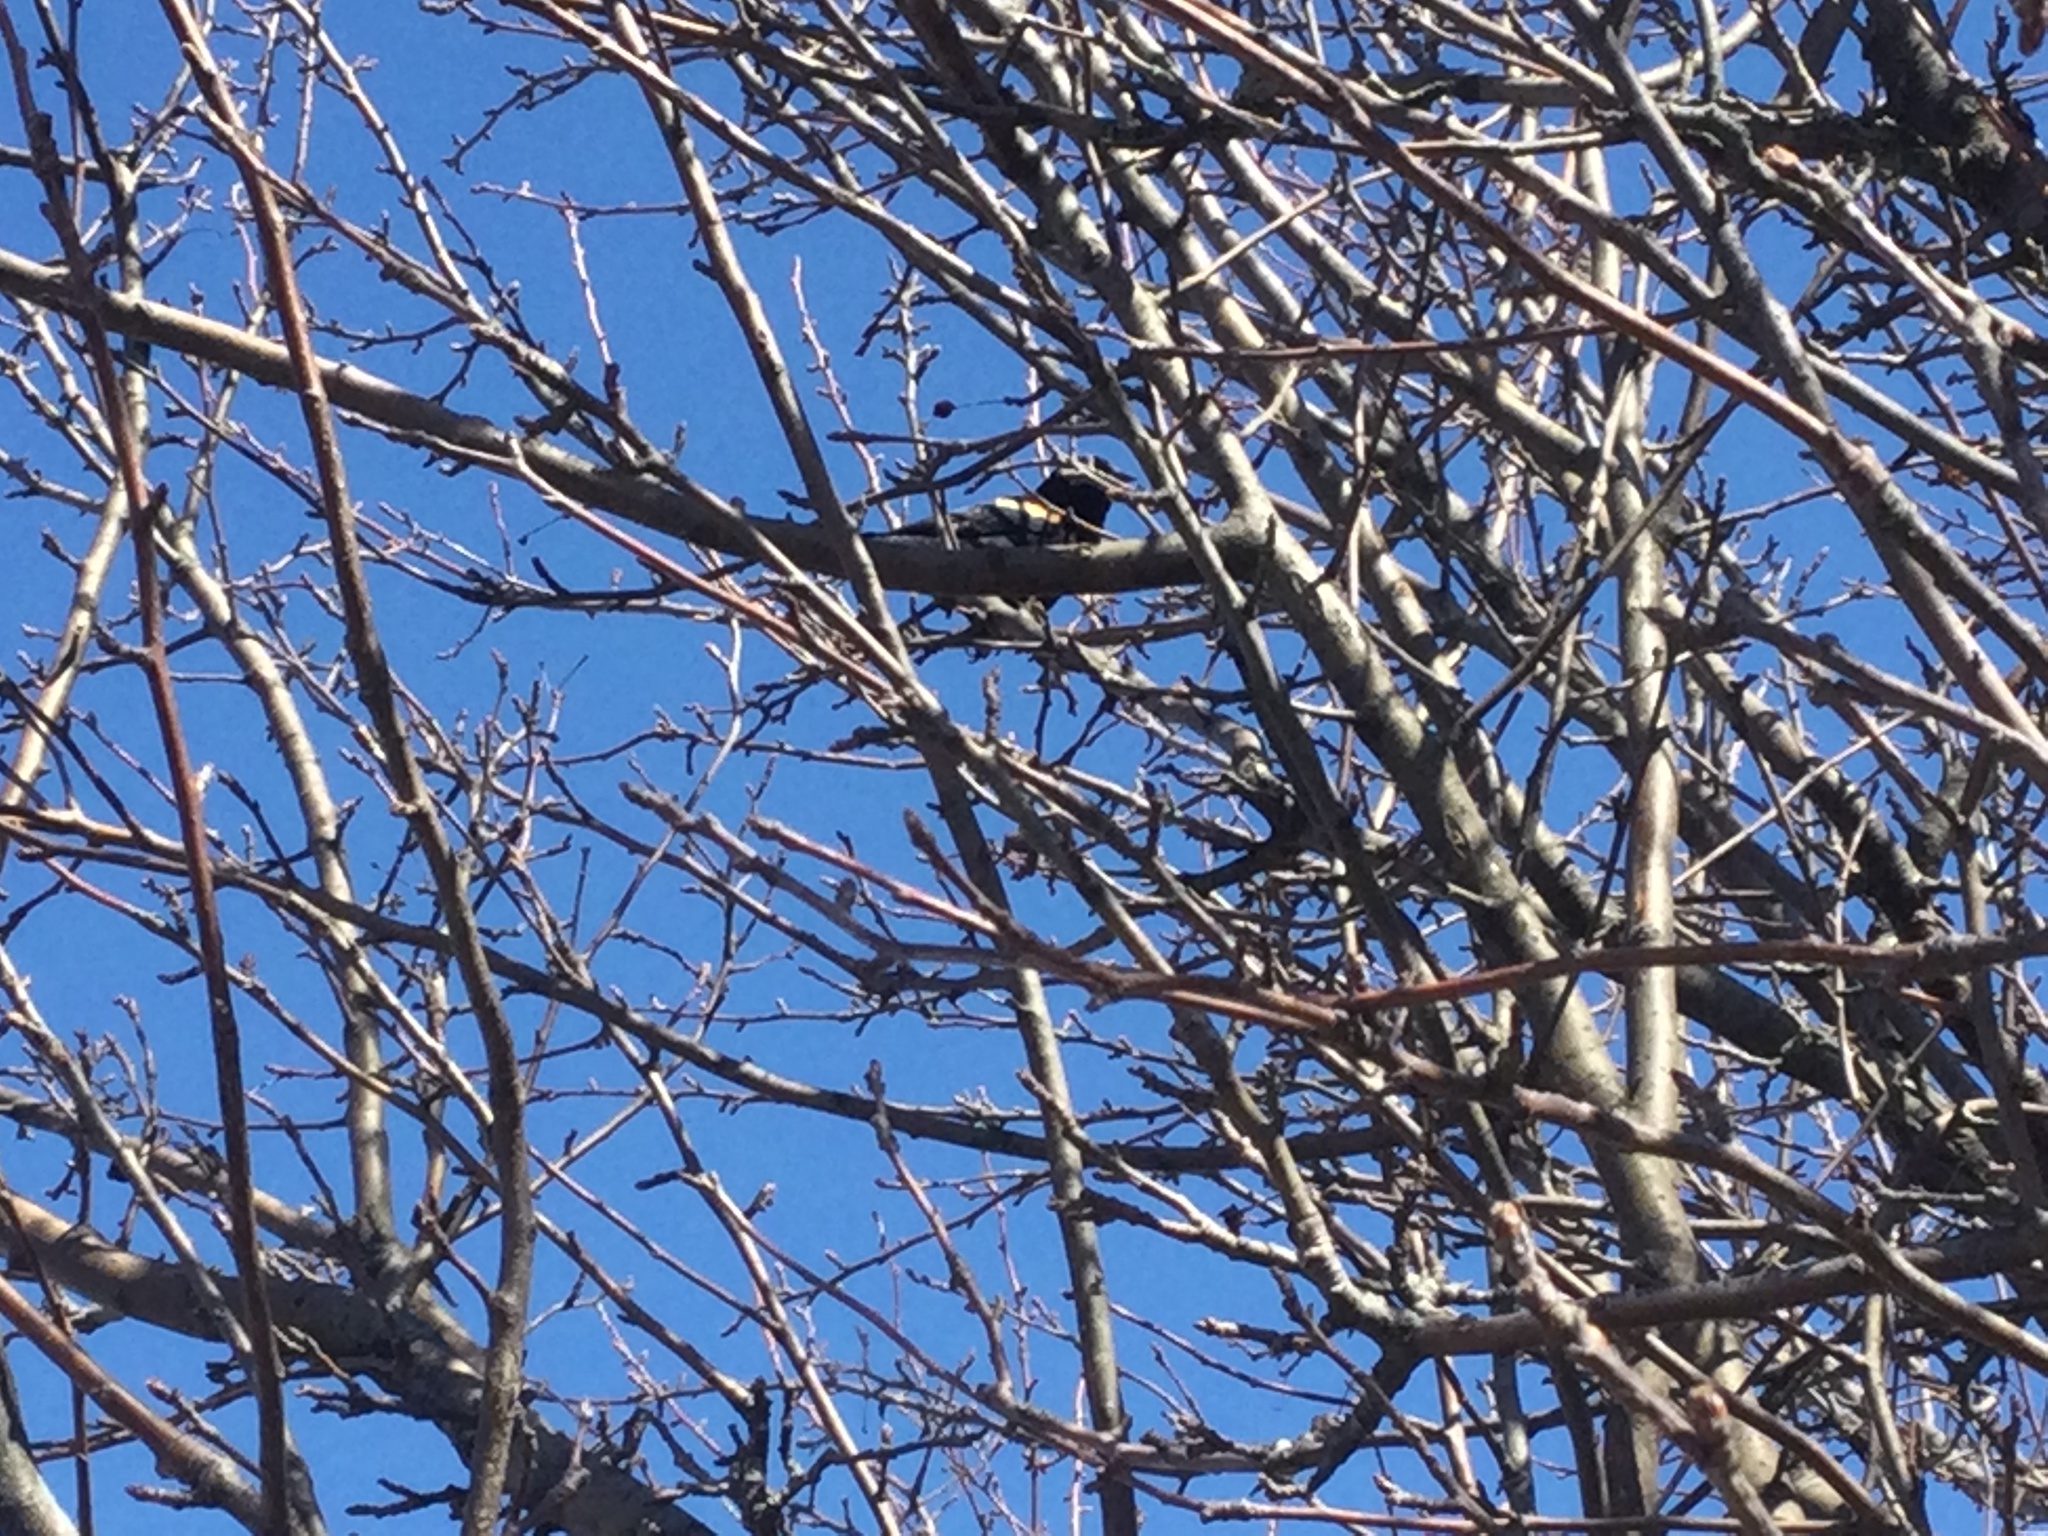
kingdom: Animalia
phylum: Chordata
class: Aves
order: Passeriformes
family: Icteridae
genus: Agelaius
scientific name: Agelaius phoeniceus
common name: Red-winged blackbird
